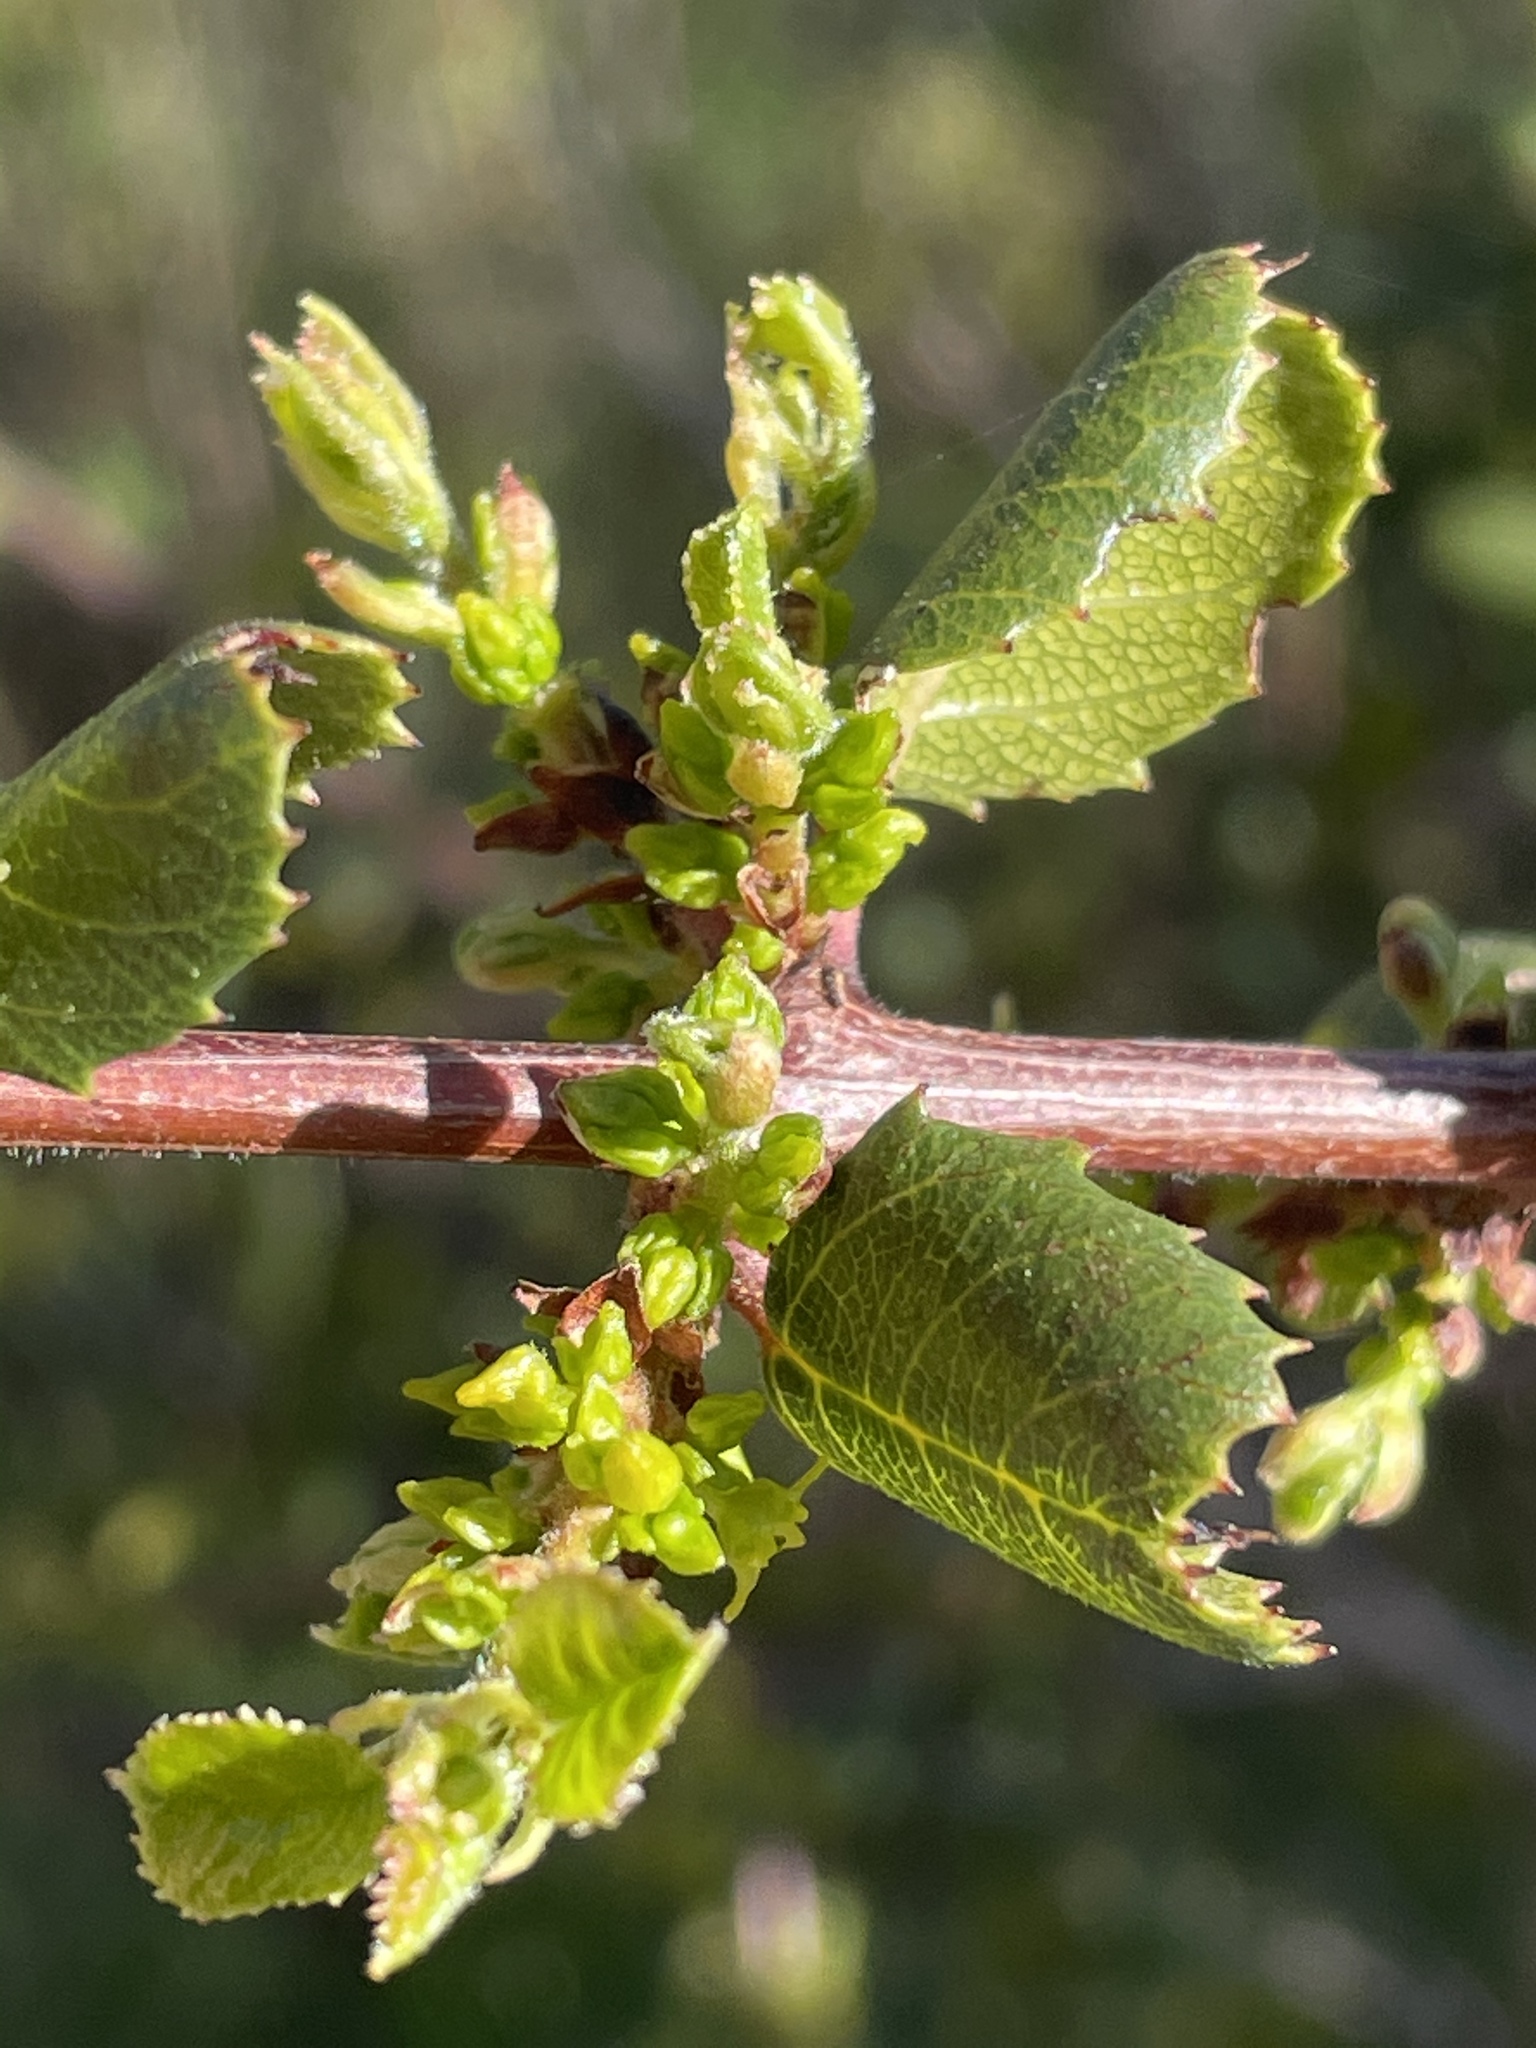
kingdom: Plantae
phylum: Tracheophyta
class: Magnoliopsida
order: Rosales
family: Rhamnaceae
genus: Endotropis
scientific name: Endotropis crocea
